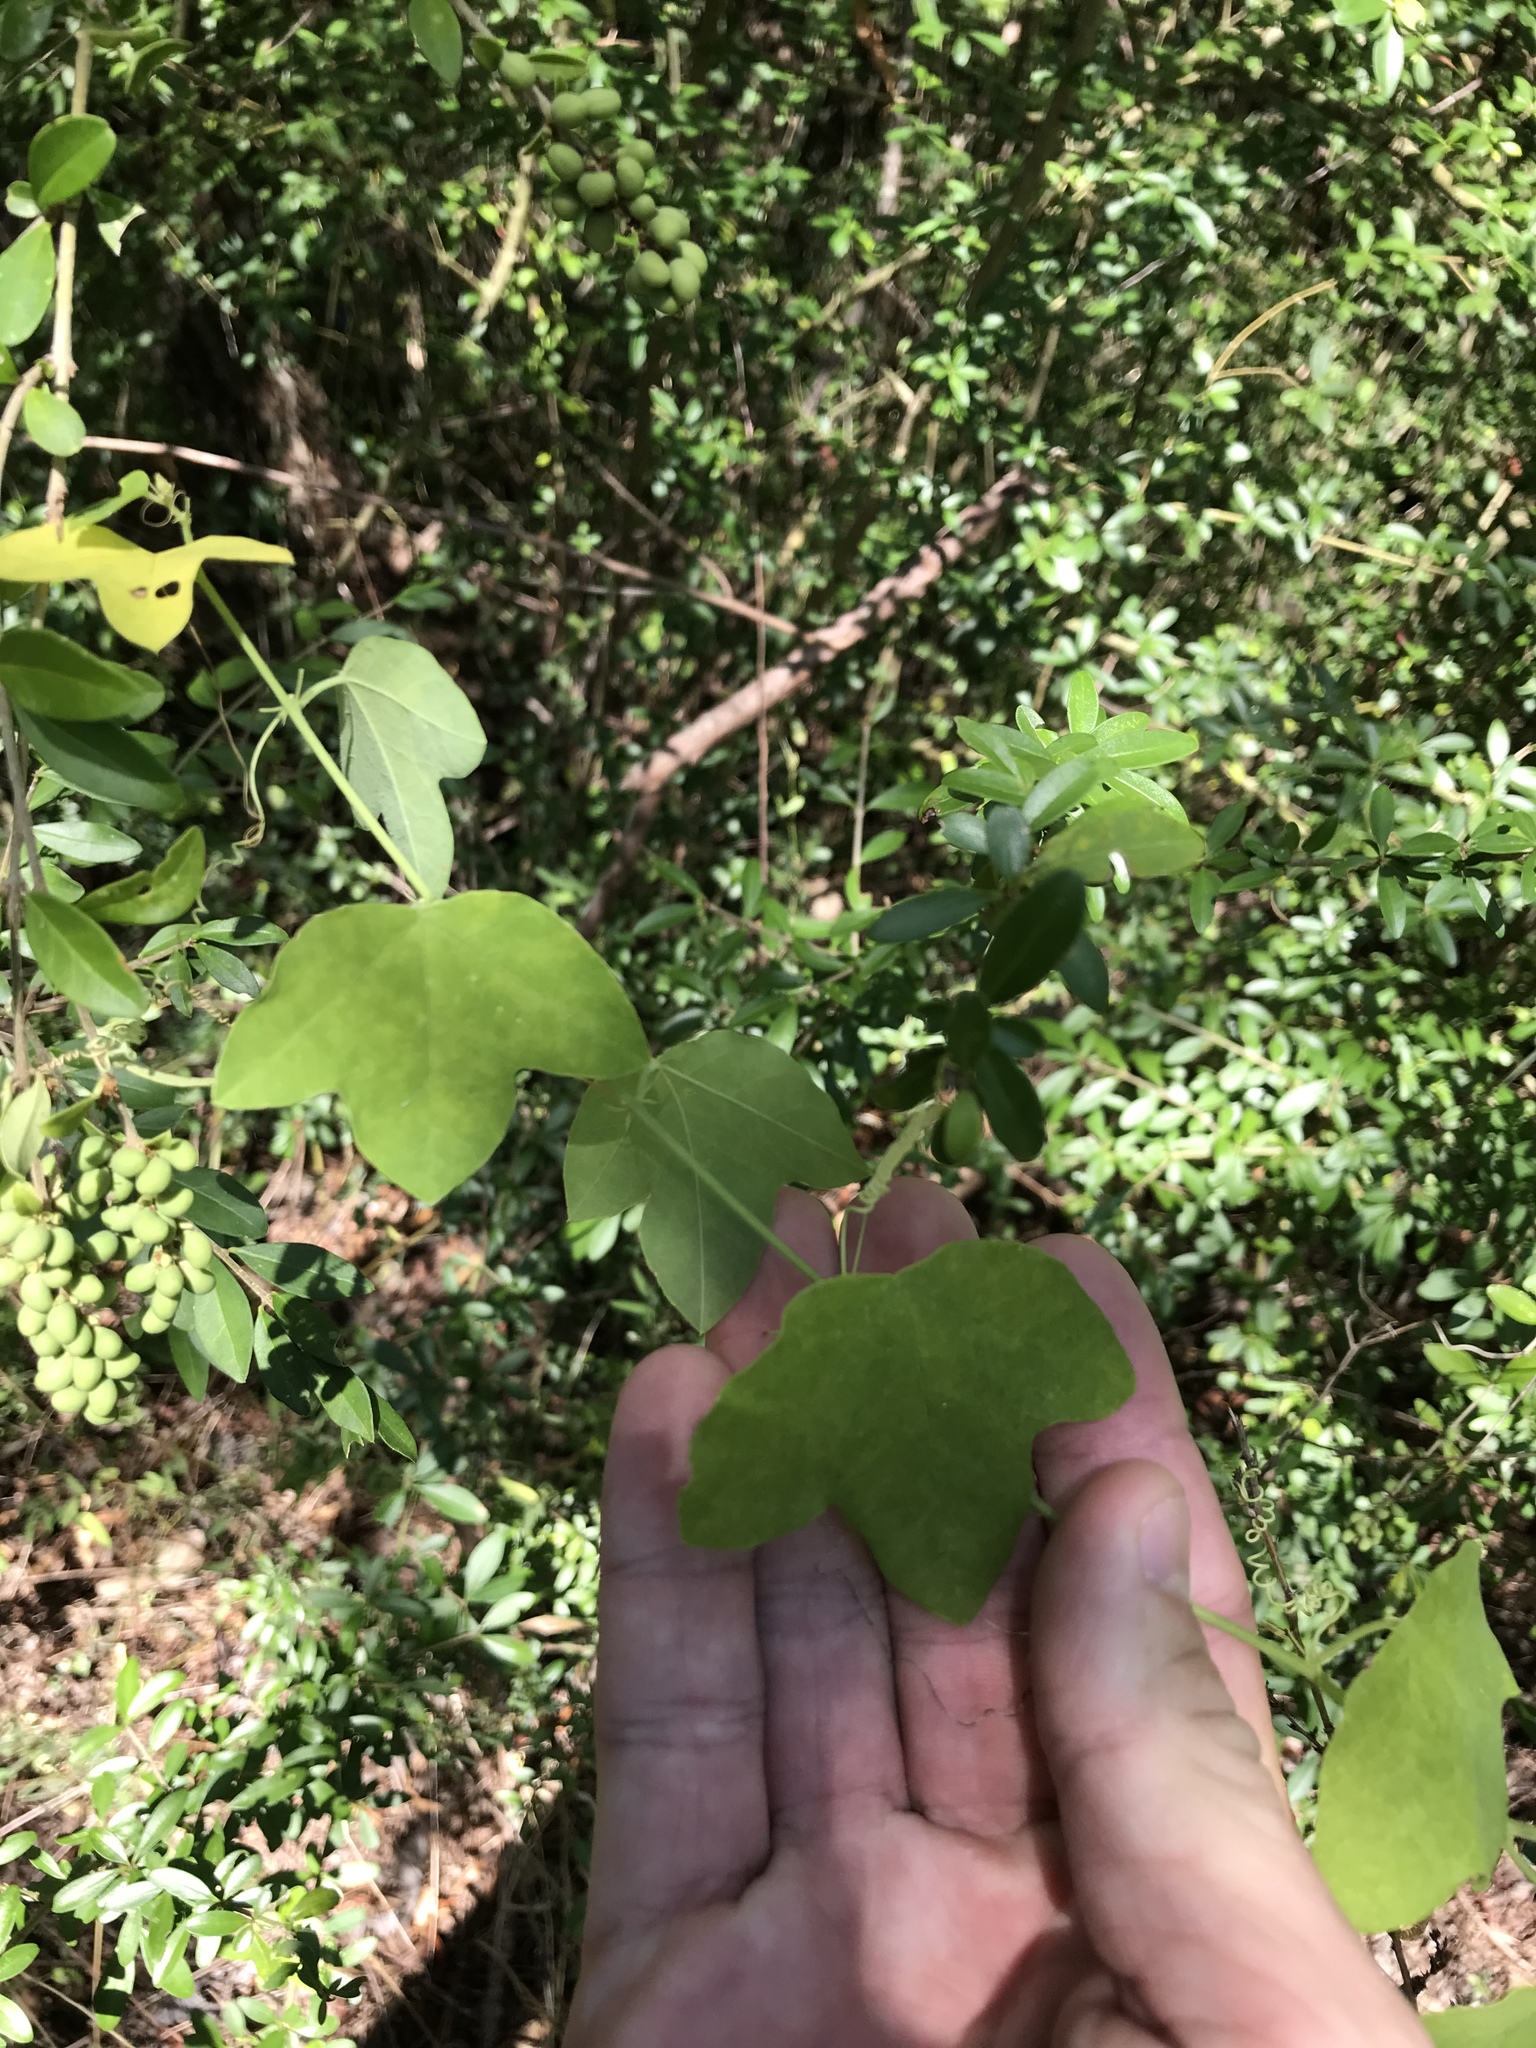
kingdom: Plantae
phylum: Tracheophyta
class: Magnoliopsida
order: Malpighiales
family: Passifloraceae
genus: Passiflora
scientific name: Passiflora lutea
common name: Yellow passionflower
